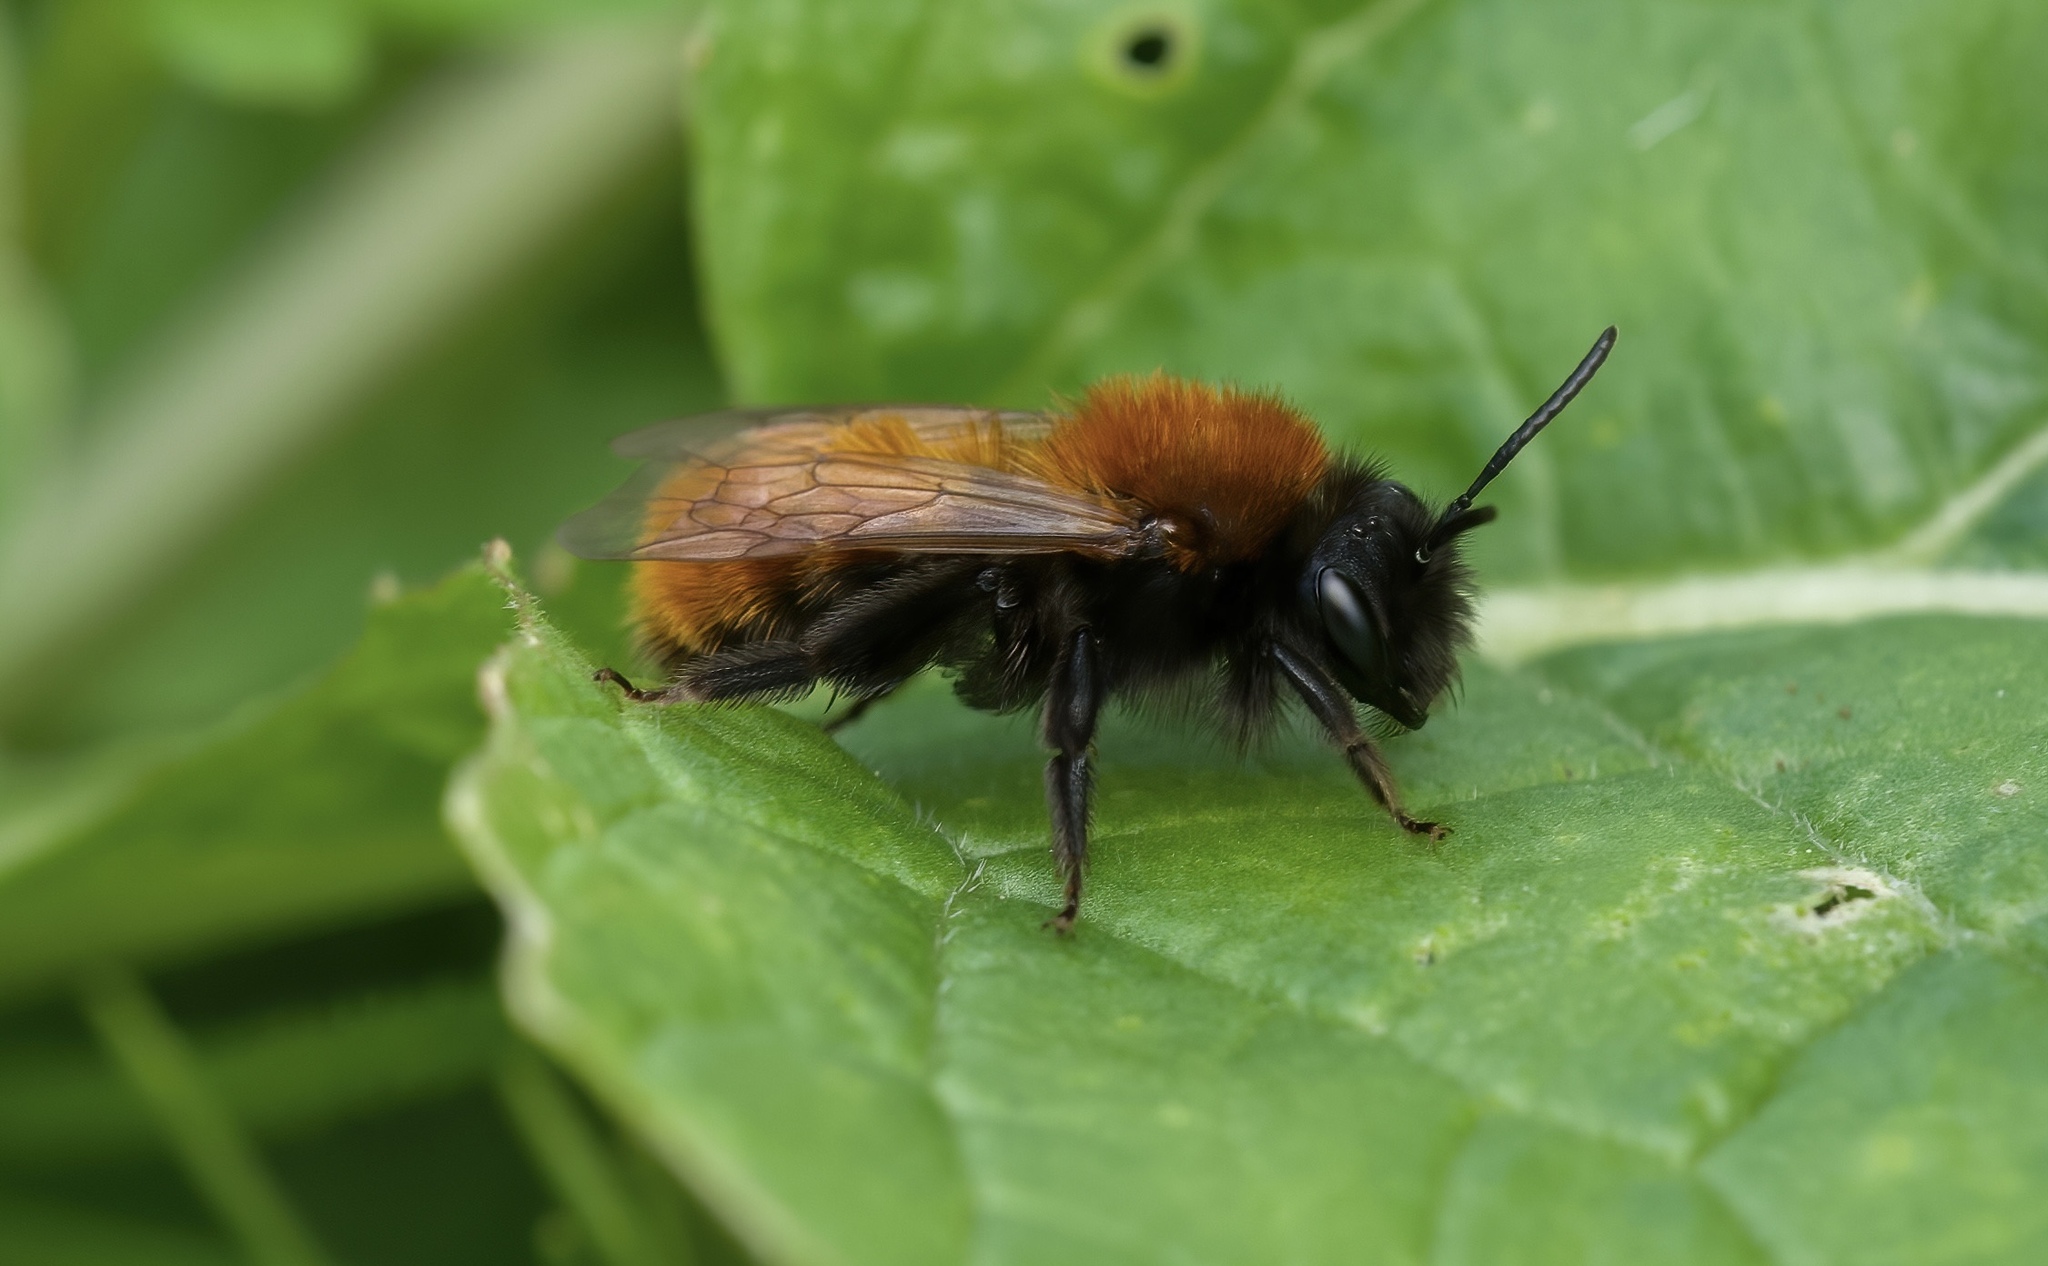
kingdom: Animalia
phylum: Arthropoda
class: Insecta
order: Hymenoptera
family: Andrenidae
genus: Andrena
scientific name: Andrena fulva
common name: Tawny mining bee
